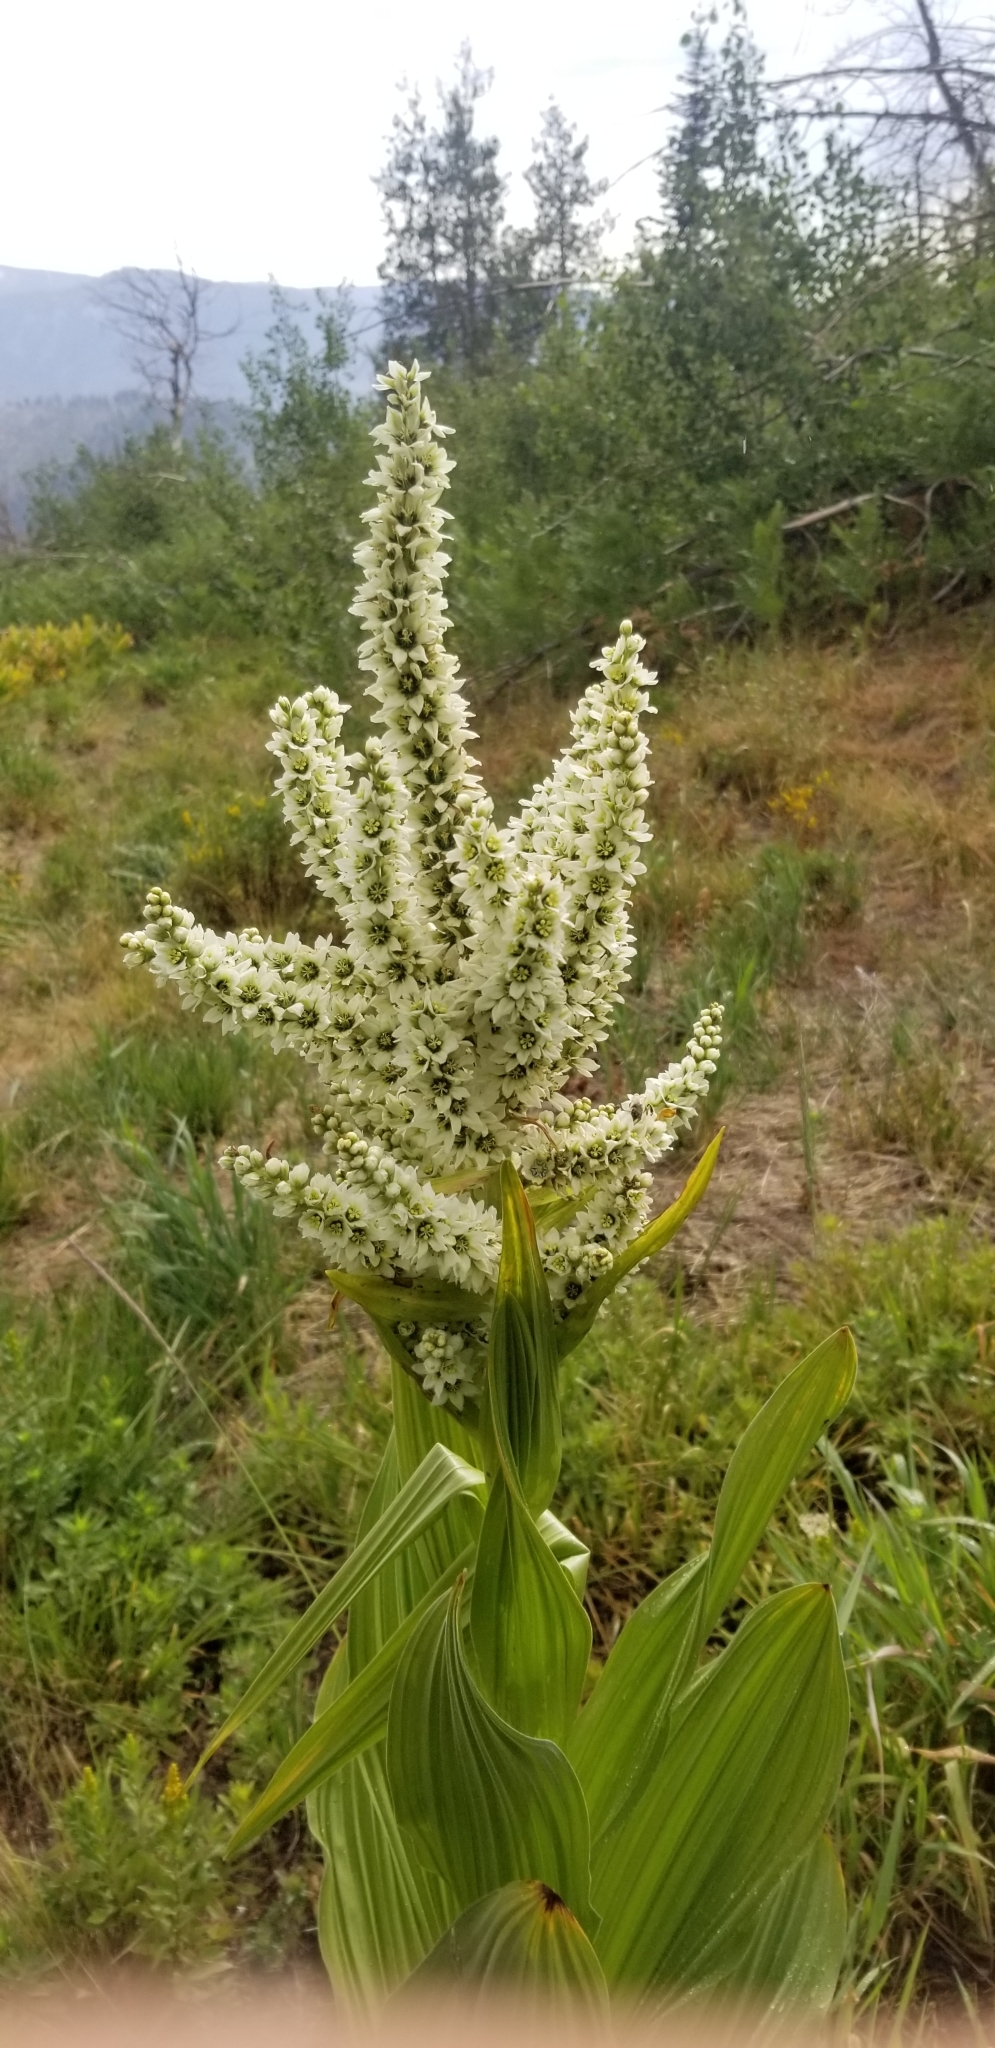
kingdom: Plantae
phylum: Tracheophyta
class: Liliopsida
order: Liliales
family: Melanthiaceae
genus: Veratrum
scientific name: Veratrum californicum
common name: California veratrum
